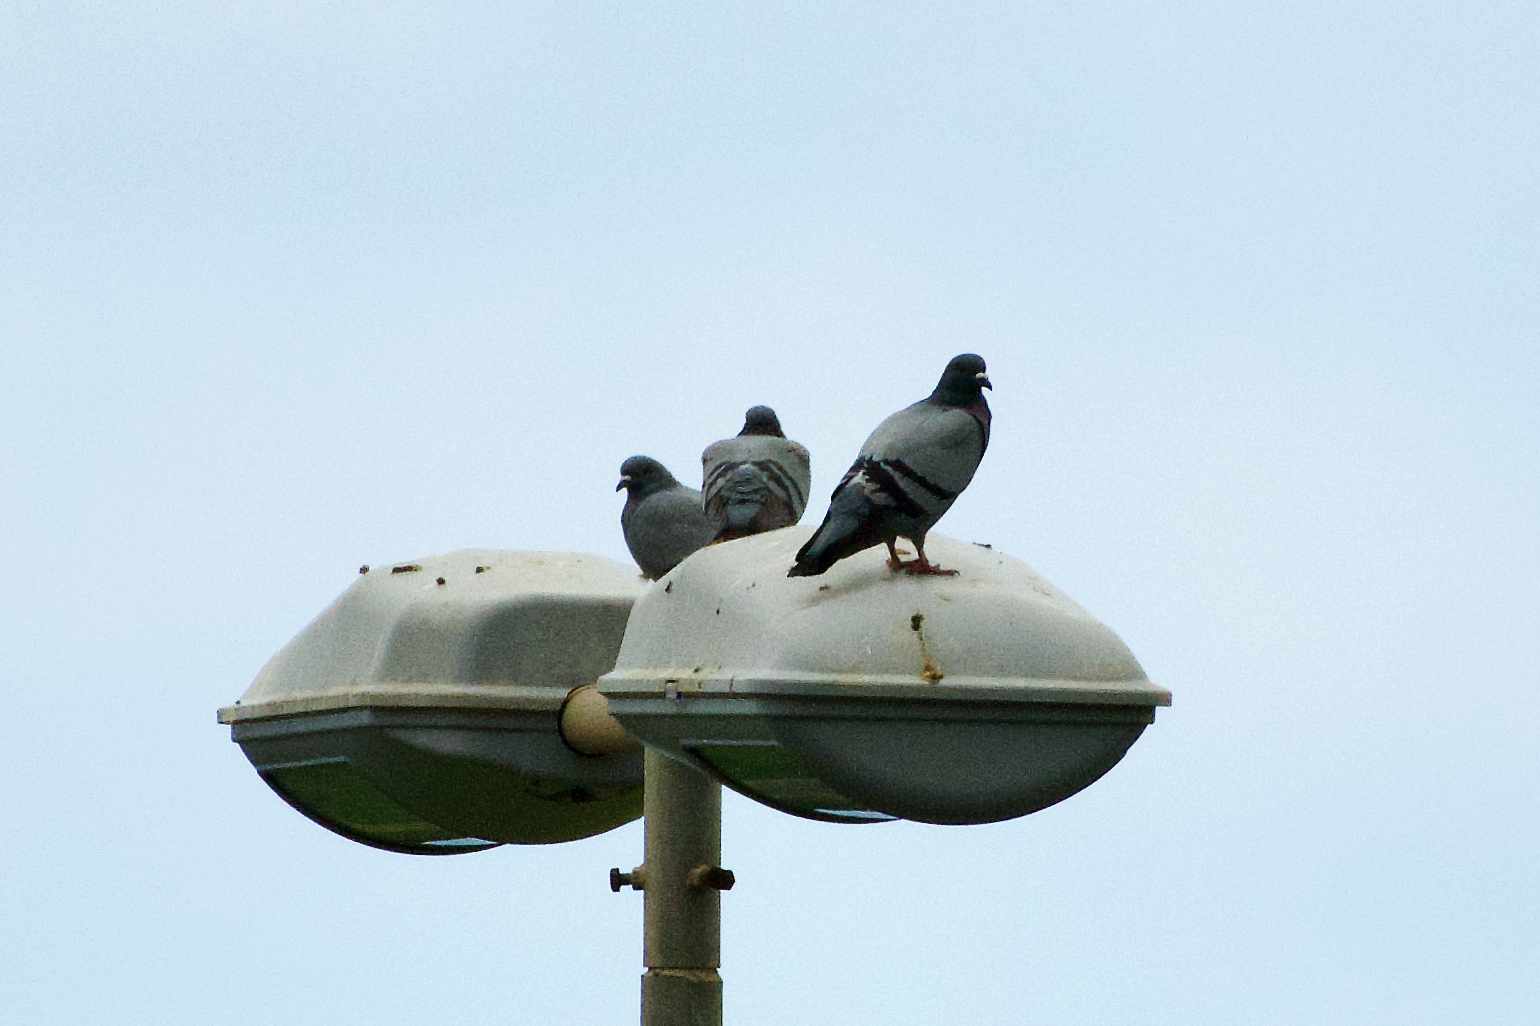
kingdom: Animalia
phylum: Chordata
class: Aves
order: Columbiformes
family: Columbidae
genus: Columba
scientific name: Columba livia
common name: Rock pigeon
